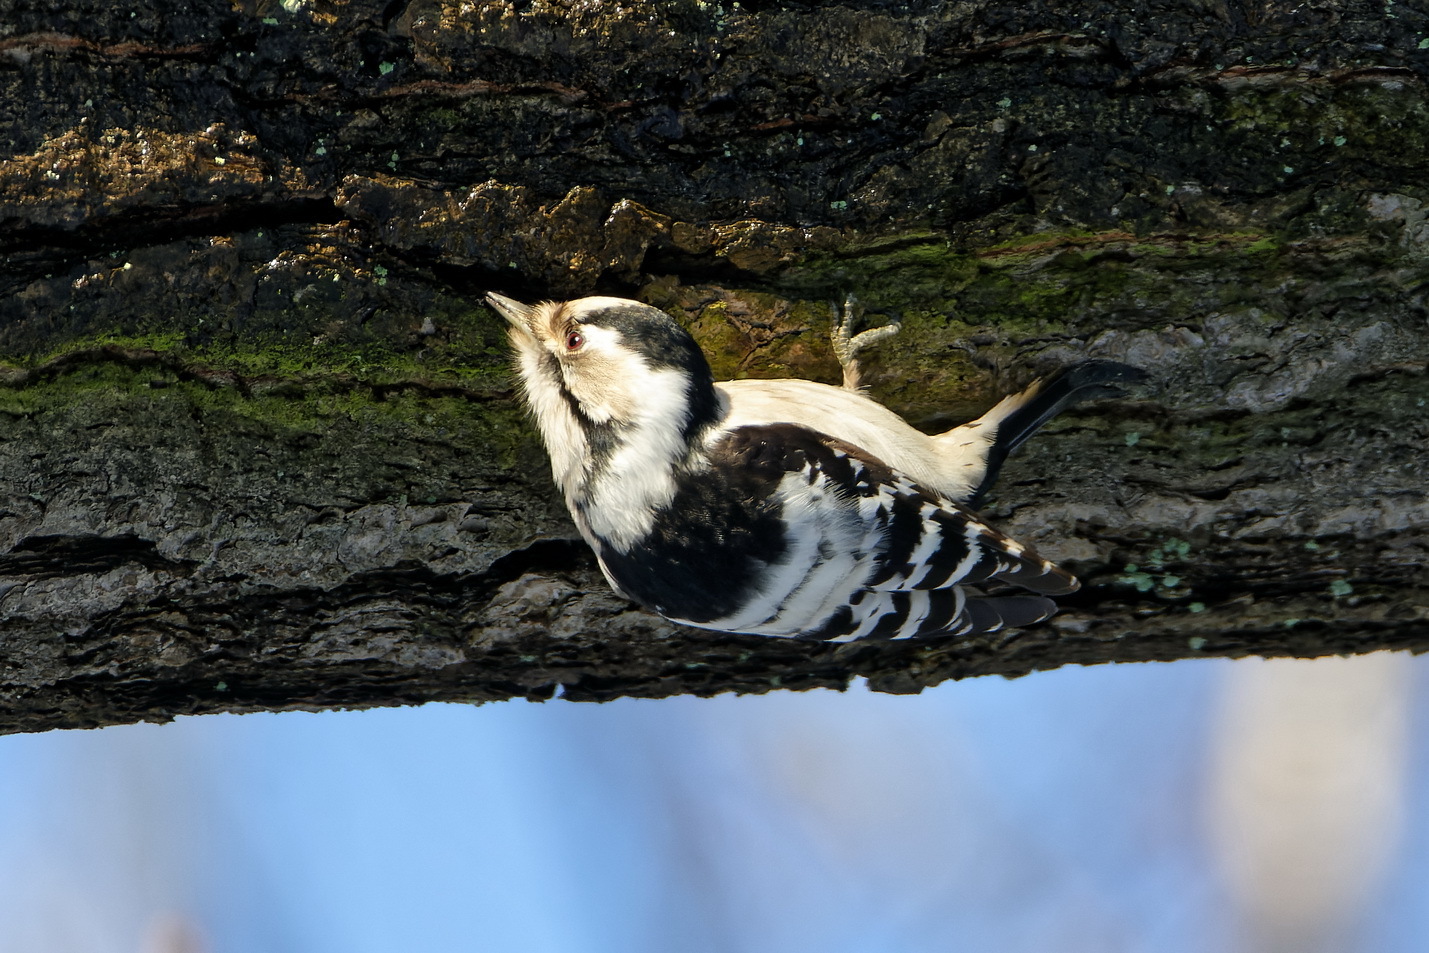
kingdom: Animalia
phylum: Chordata
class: Aves
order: Piciformes
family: Picidae
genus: Dryobates
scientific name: Dryobates minor
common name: Lesser spotted woodpecker
